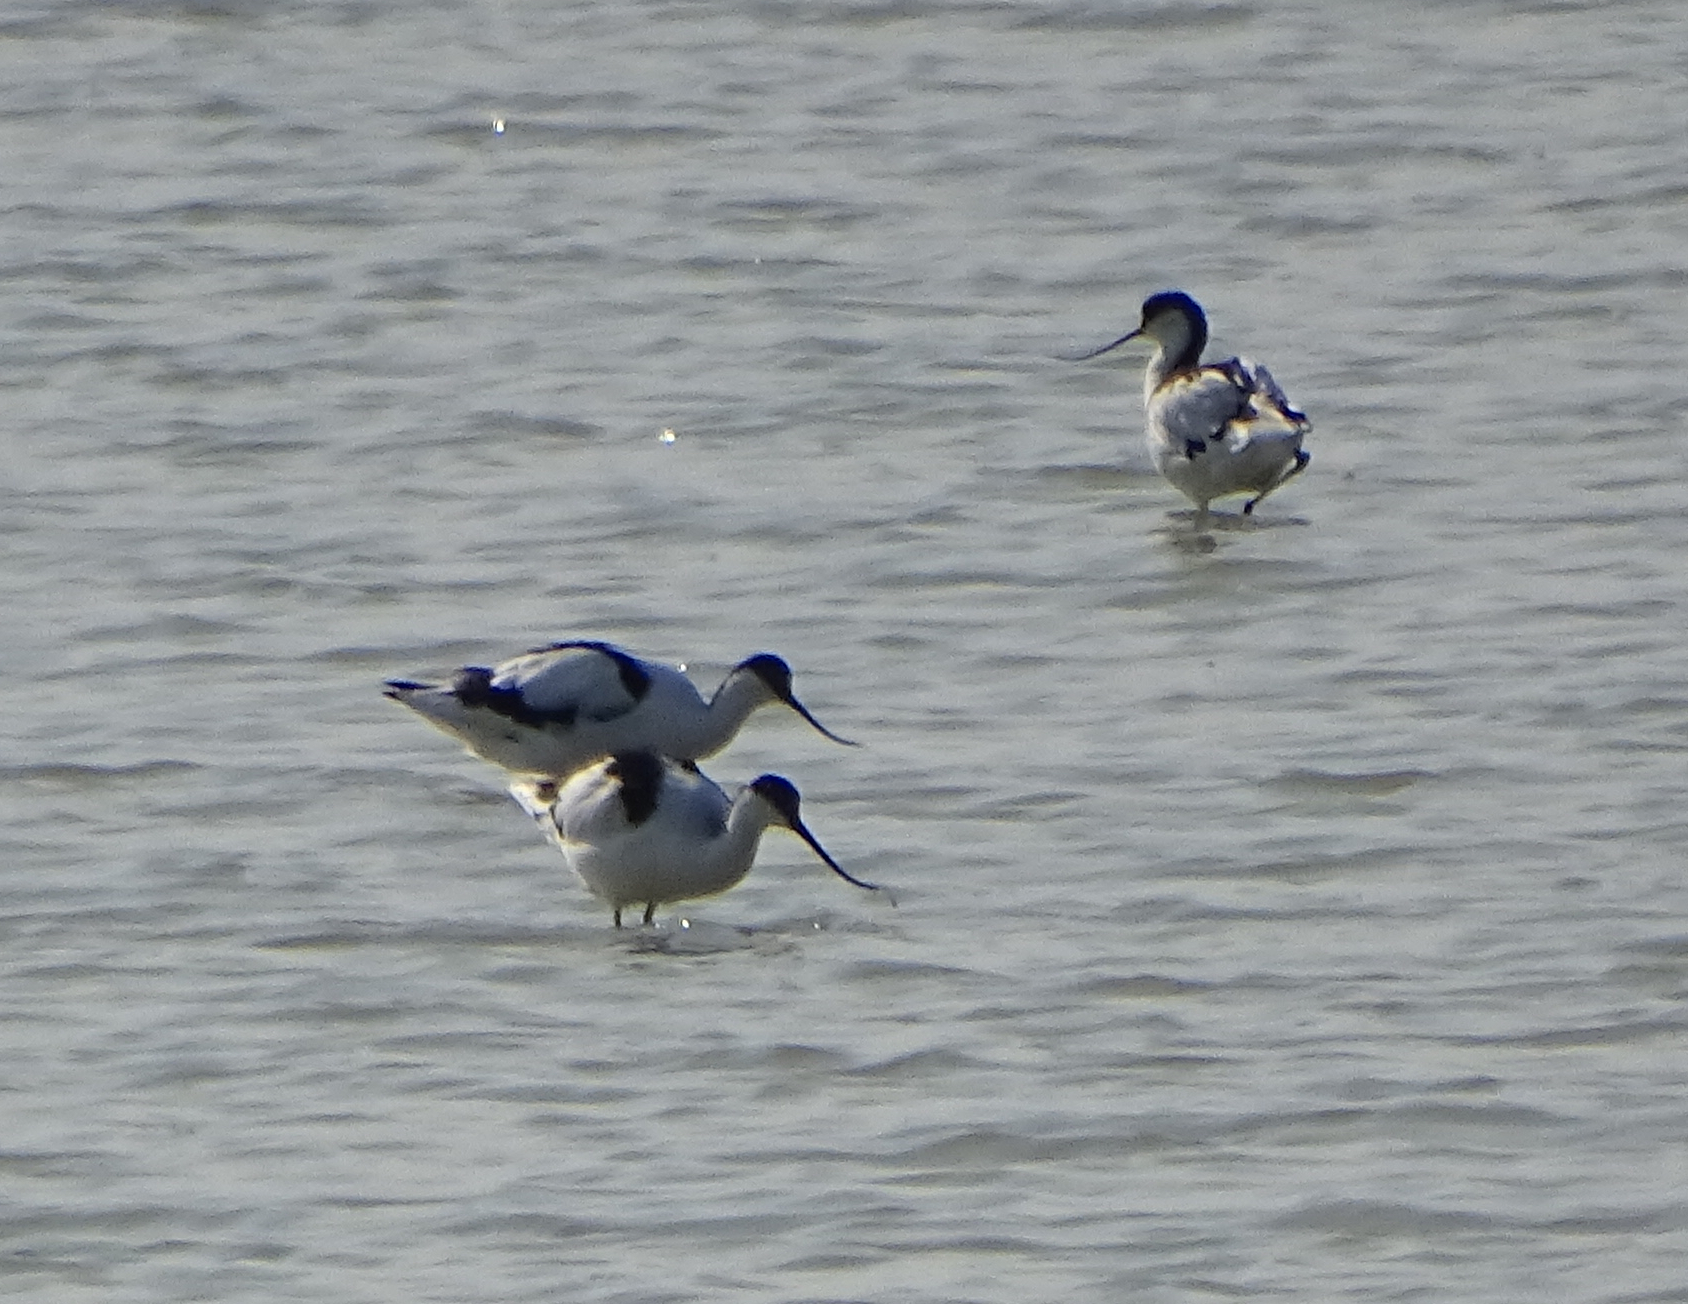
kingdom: Animalia
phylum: Chordata
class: Aves
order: Charadriiformes
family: Recurvirostridae
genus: Recurvirostra
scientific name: Recurvirostra avosetta
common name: Pied avocet
